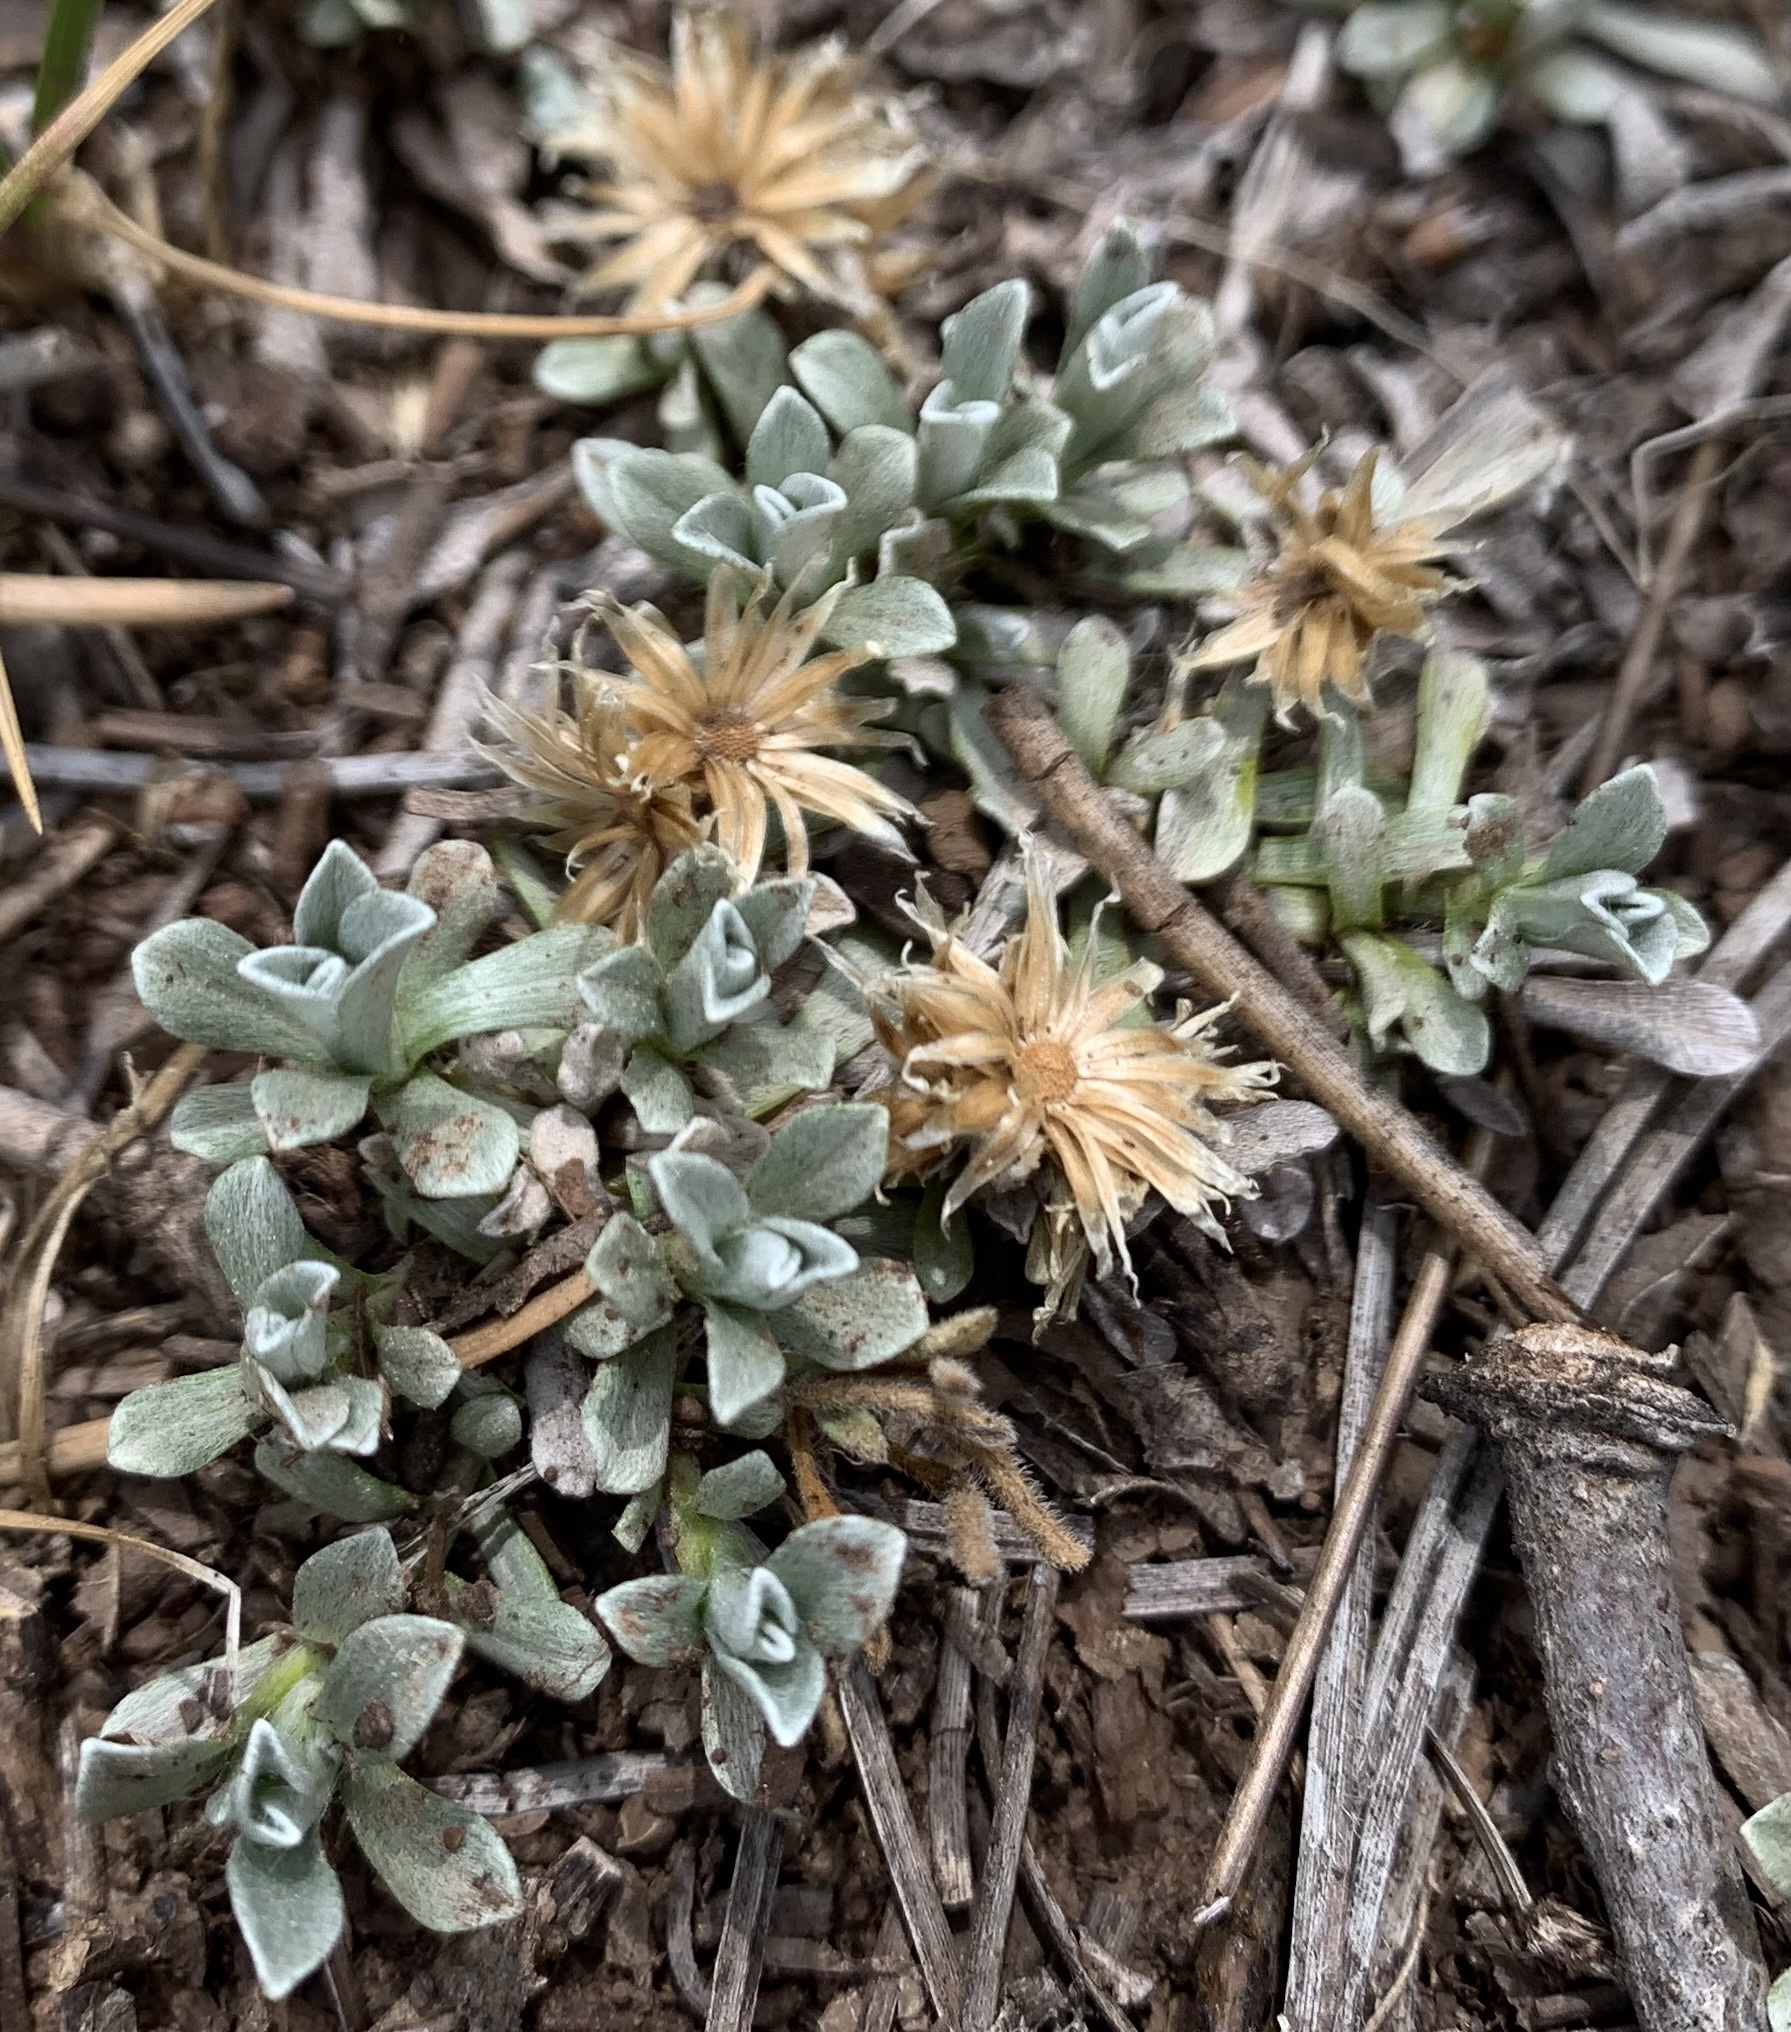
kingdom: Plantae
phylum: Tracheophyta
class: Magnoliopsida
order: Asterales
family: Asteraceae
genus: Antennaria
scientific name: Antennaria rosulata
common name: Woolly pussytoes
